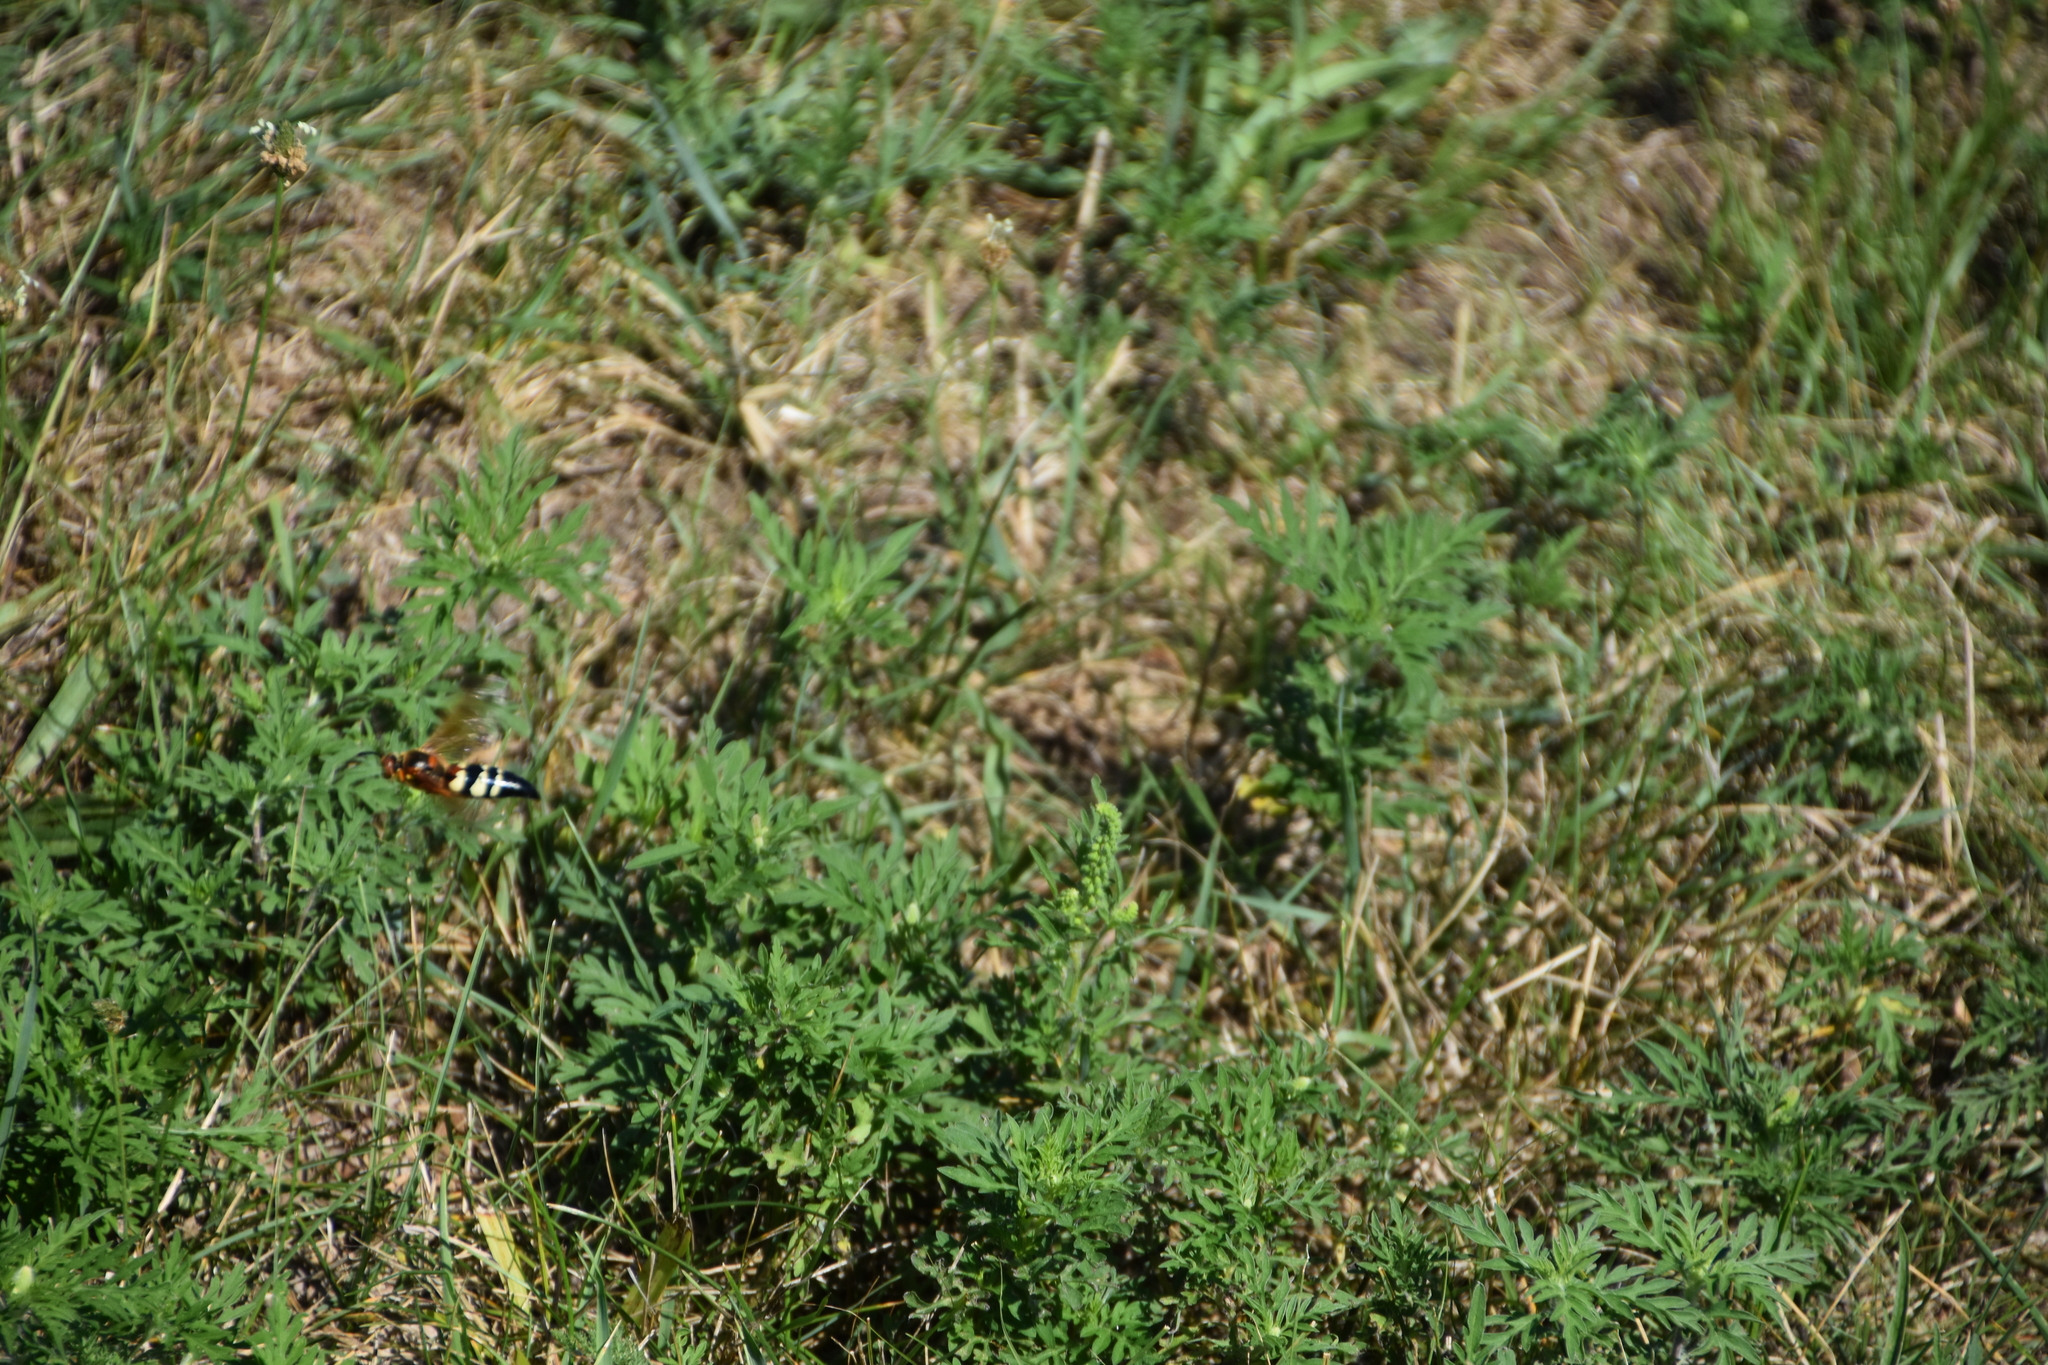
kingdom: Animalia
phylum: Arthropoda
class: Insecta
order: Hymenoptera
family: Crabronidae
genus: Sphecius
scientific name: Sphecius speciosus
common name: Cicada killer
